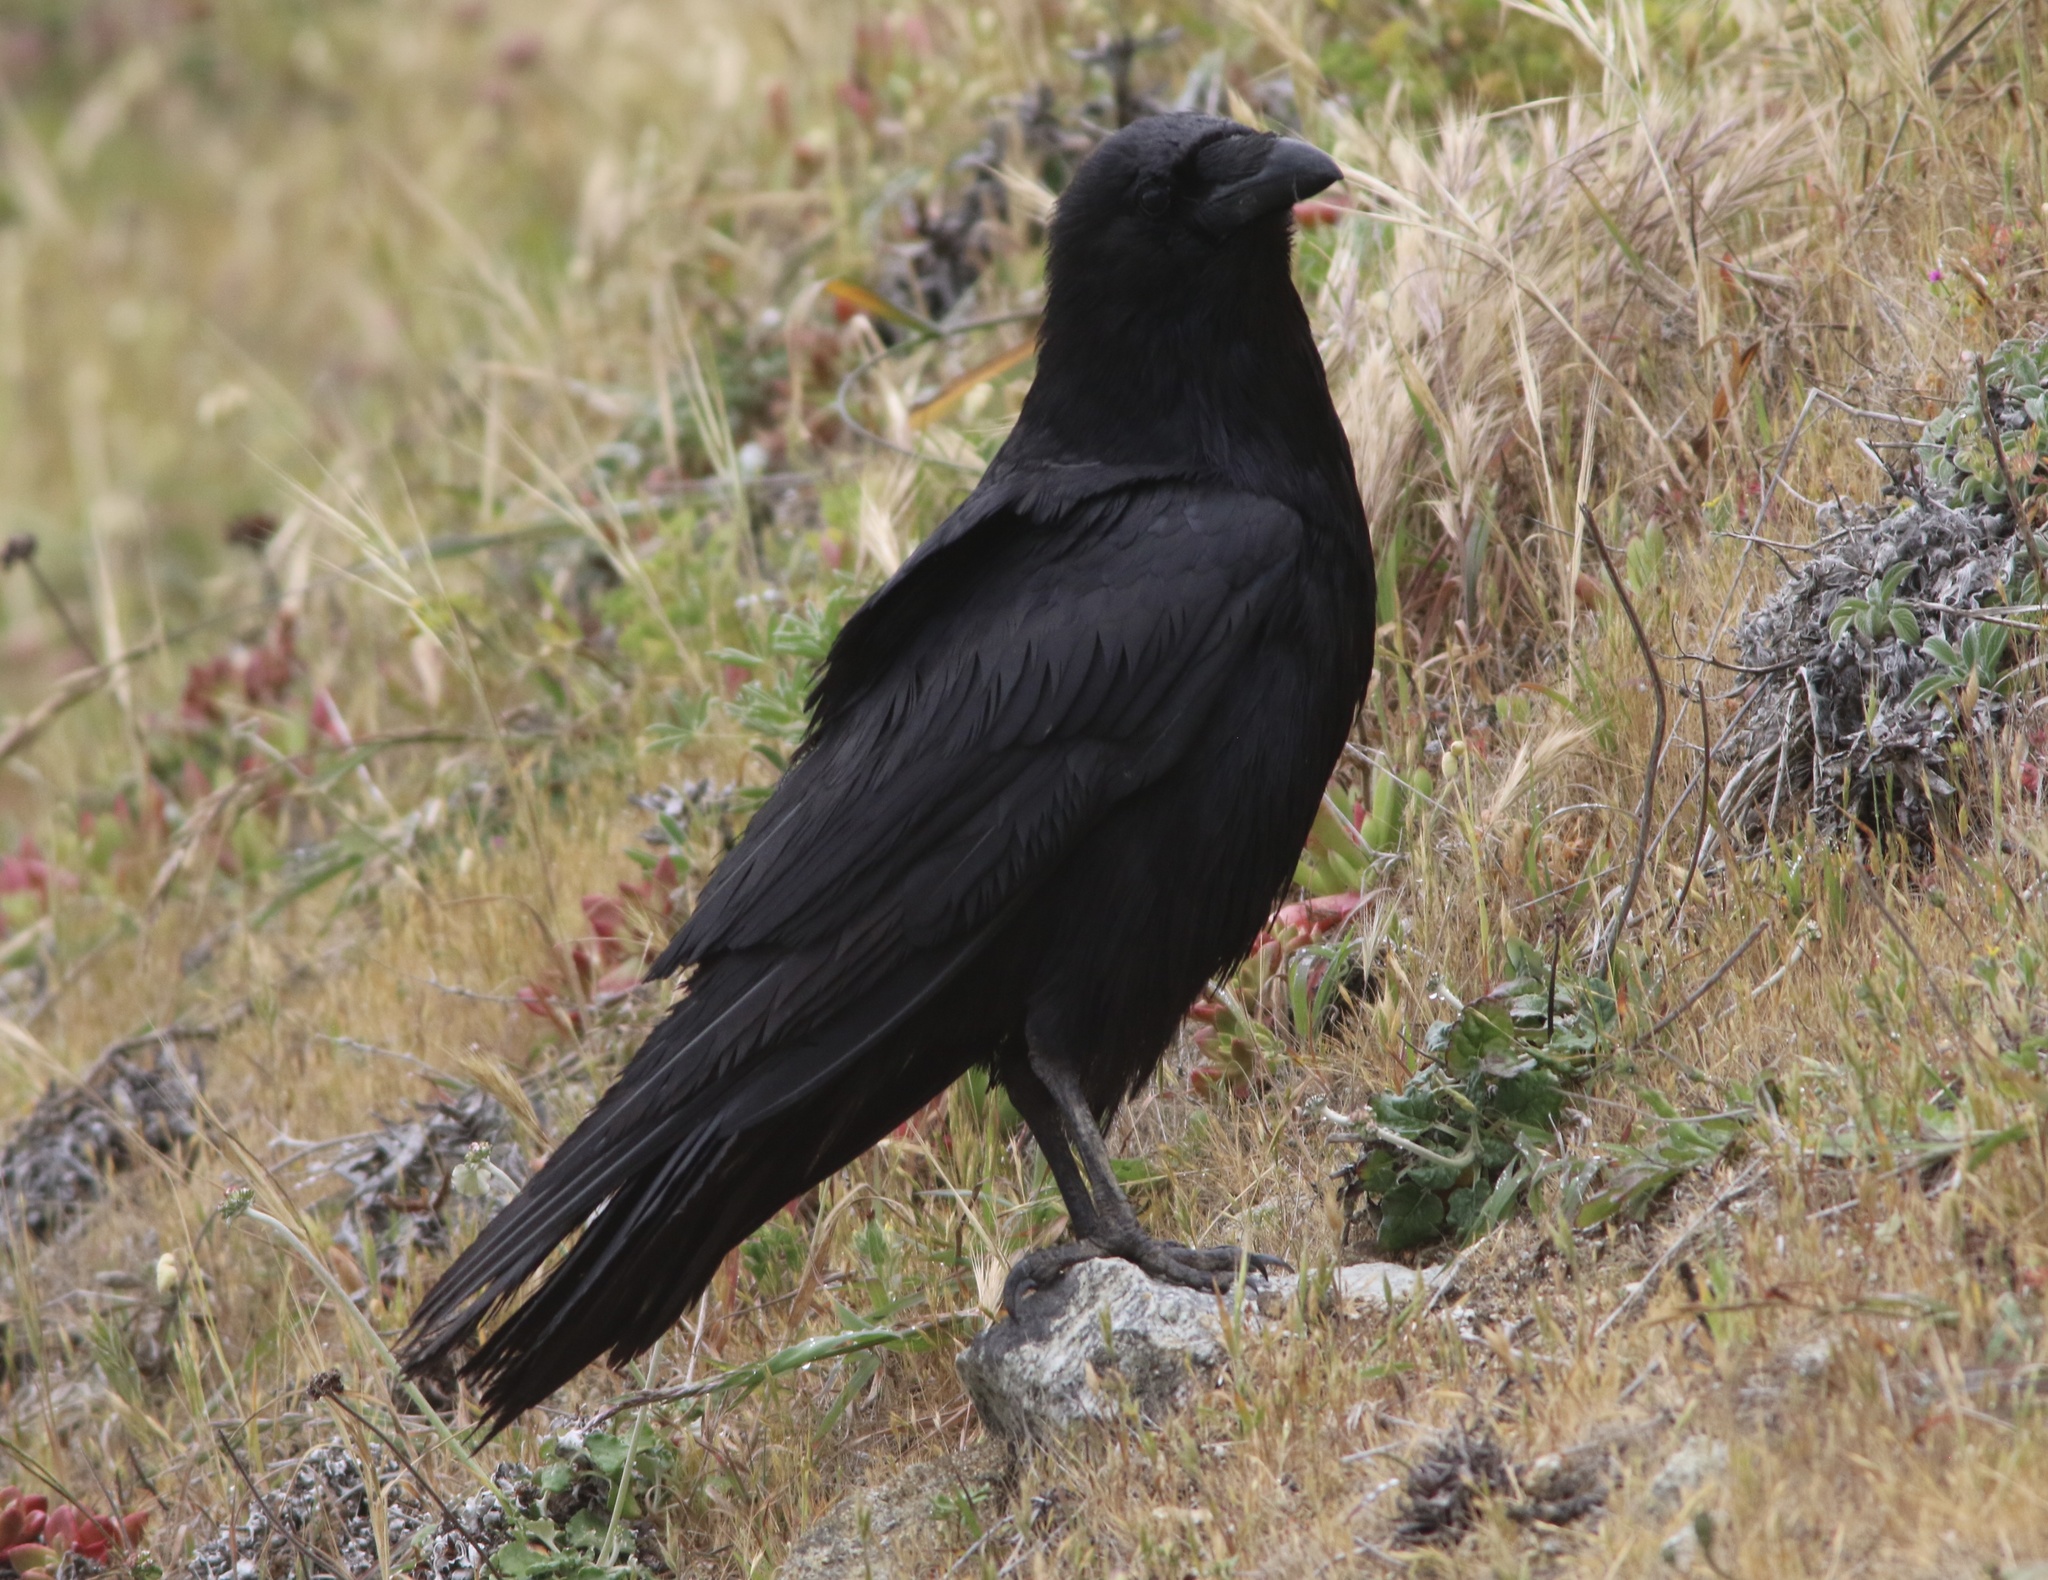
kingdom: Animalia
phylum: Chordata
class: Aves
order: Passeriformes
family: Corvidae
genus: Corvus
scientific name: Corvus corax
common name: Common raven
